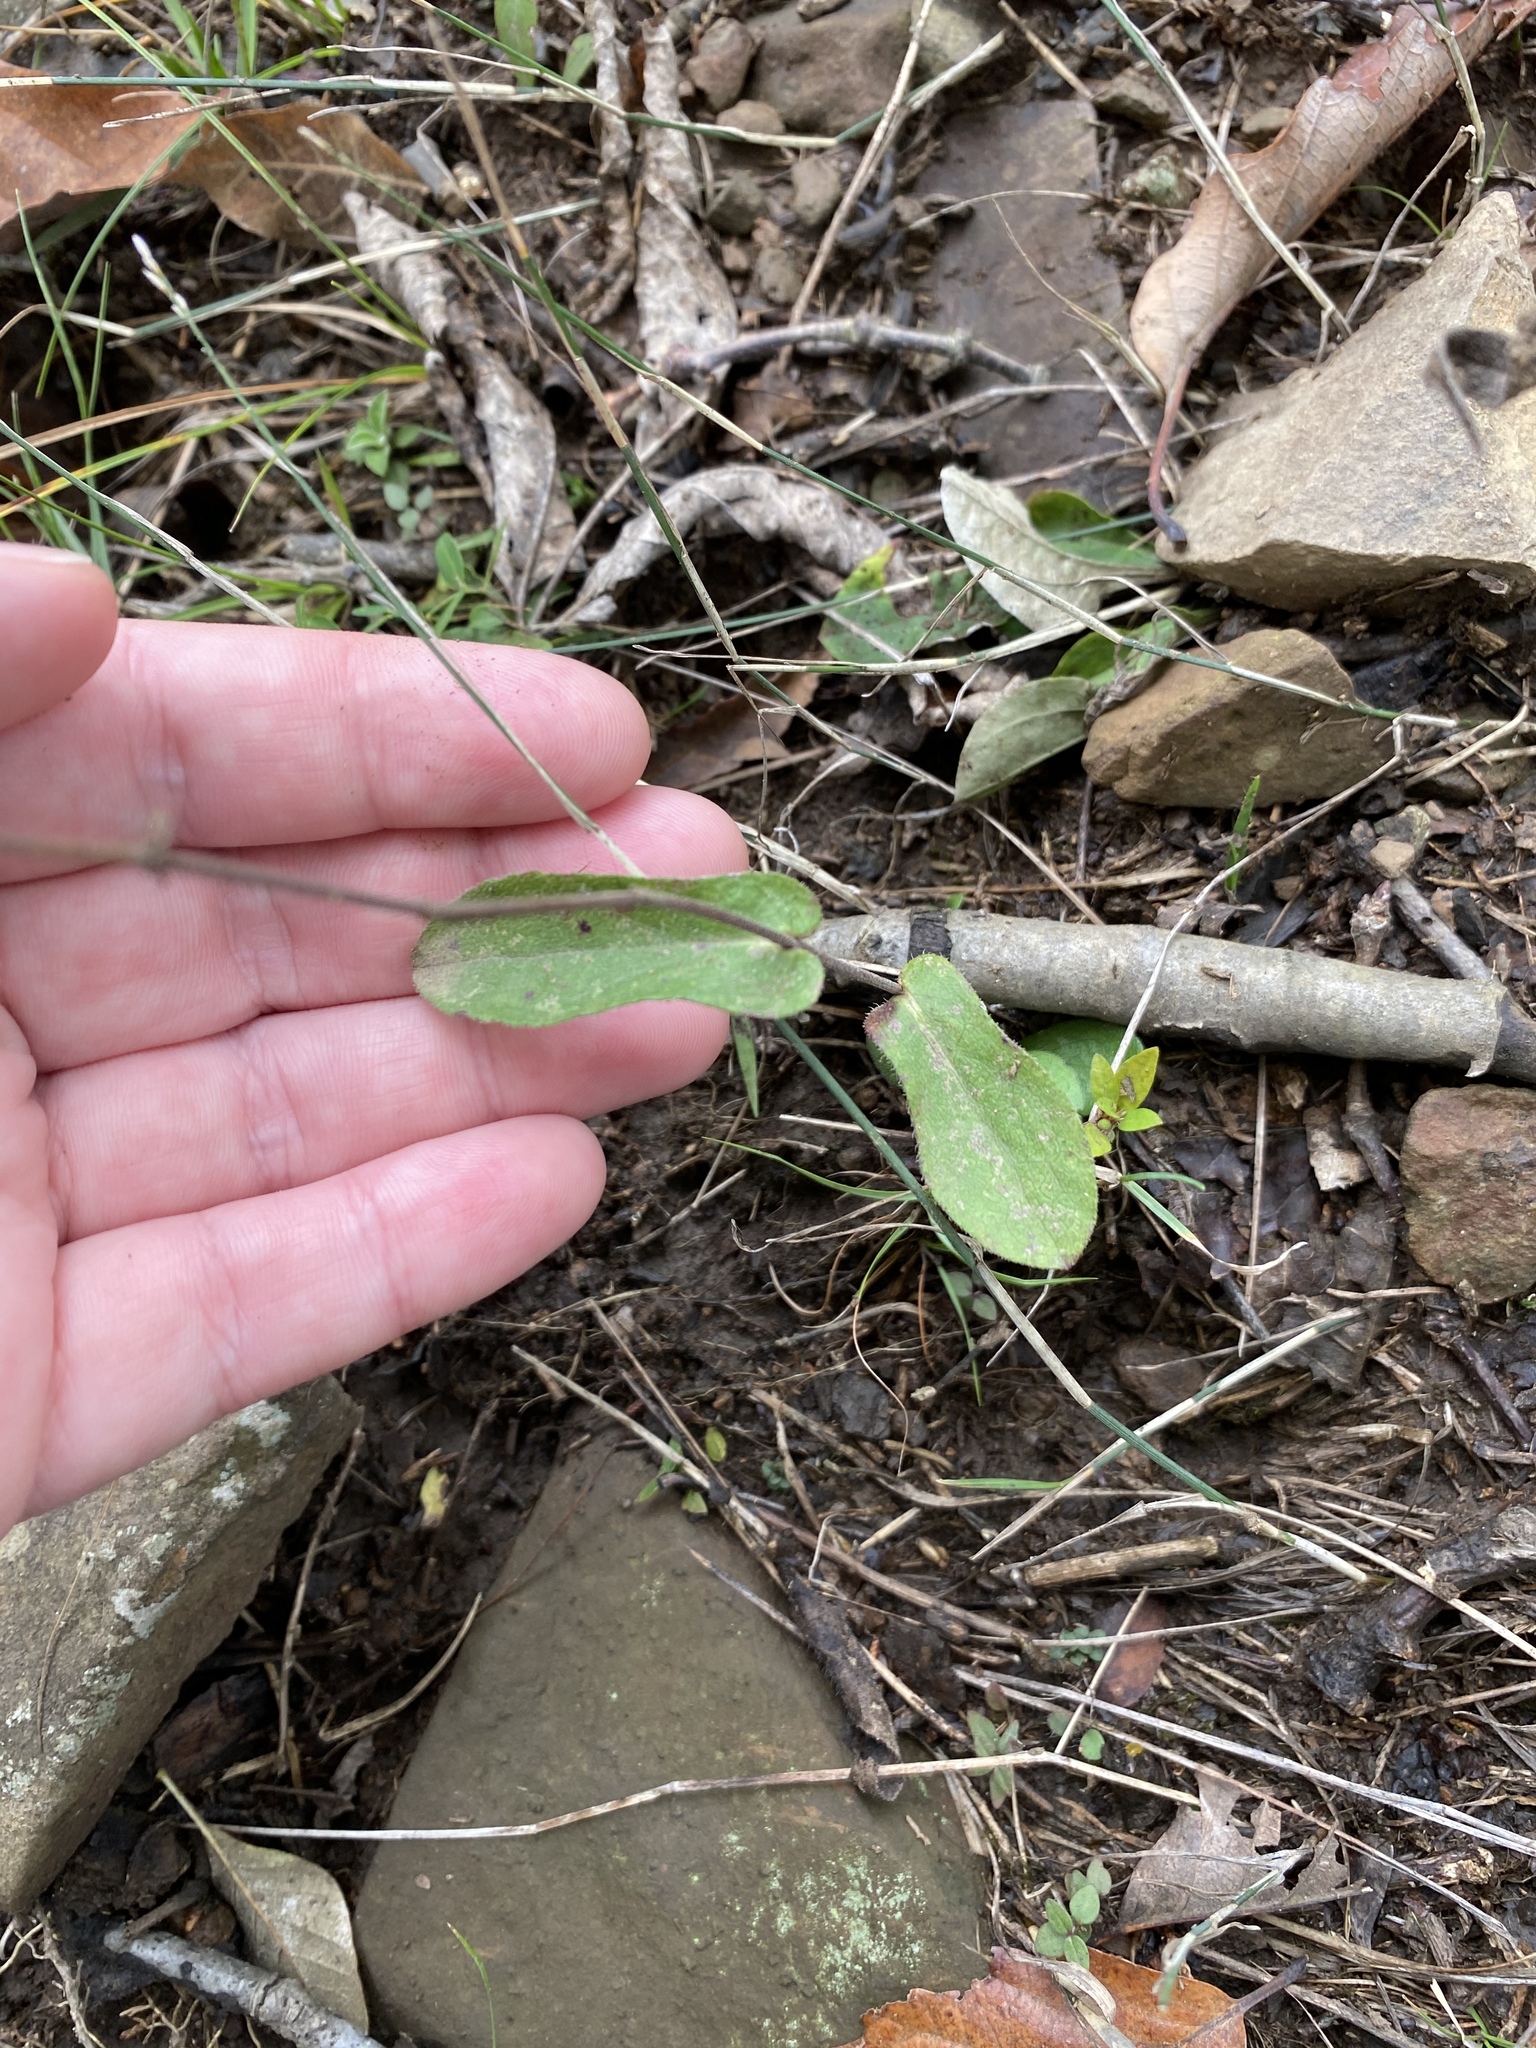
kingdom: Plantae
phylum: Tracheophyta
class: Magnoliopsida
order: Asterales
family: Asteraceae
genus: Symphyotrichum
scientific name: Symphyotrichum patens
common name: Late purple aster
